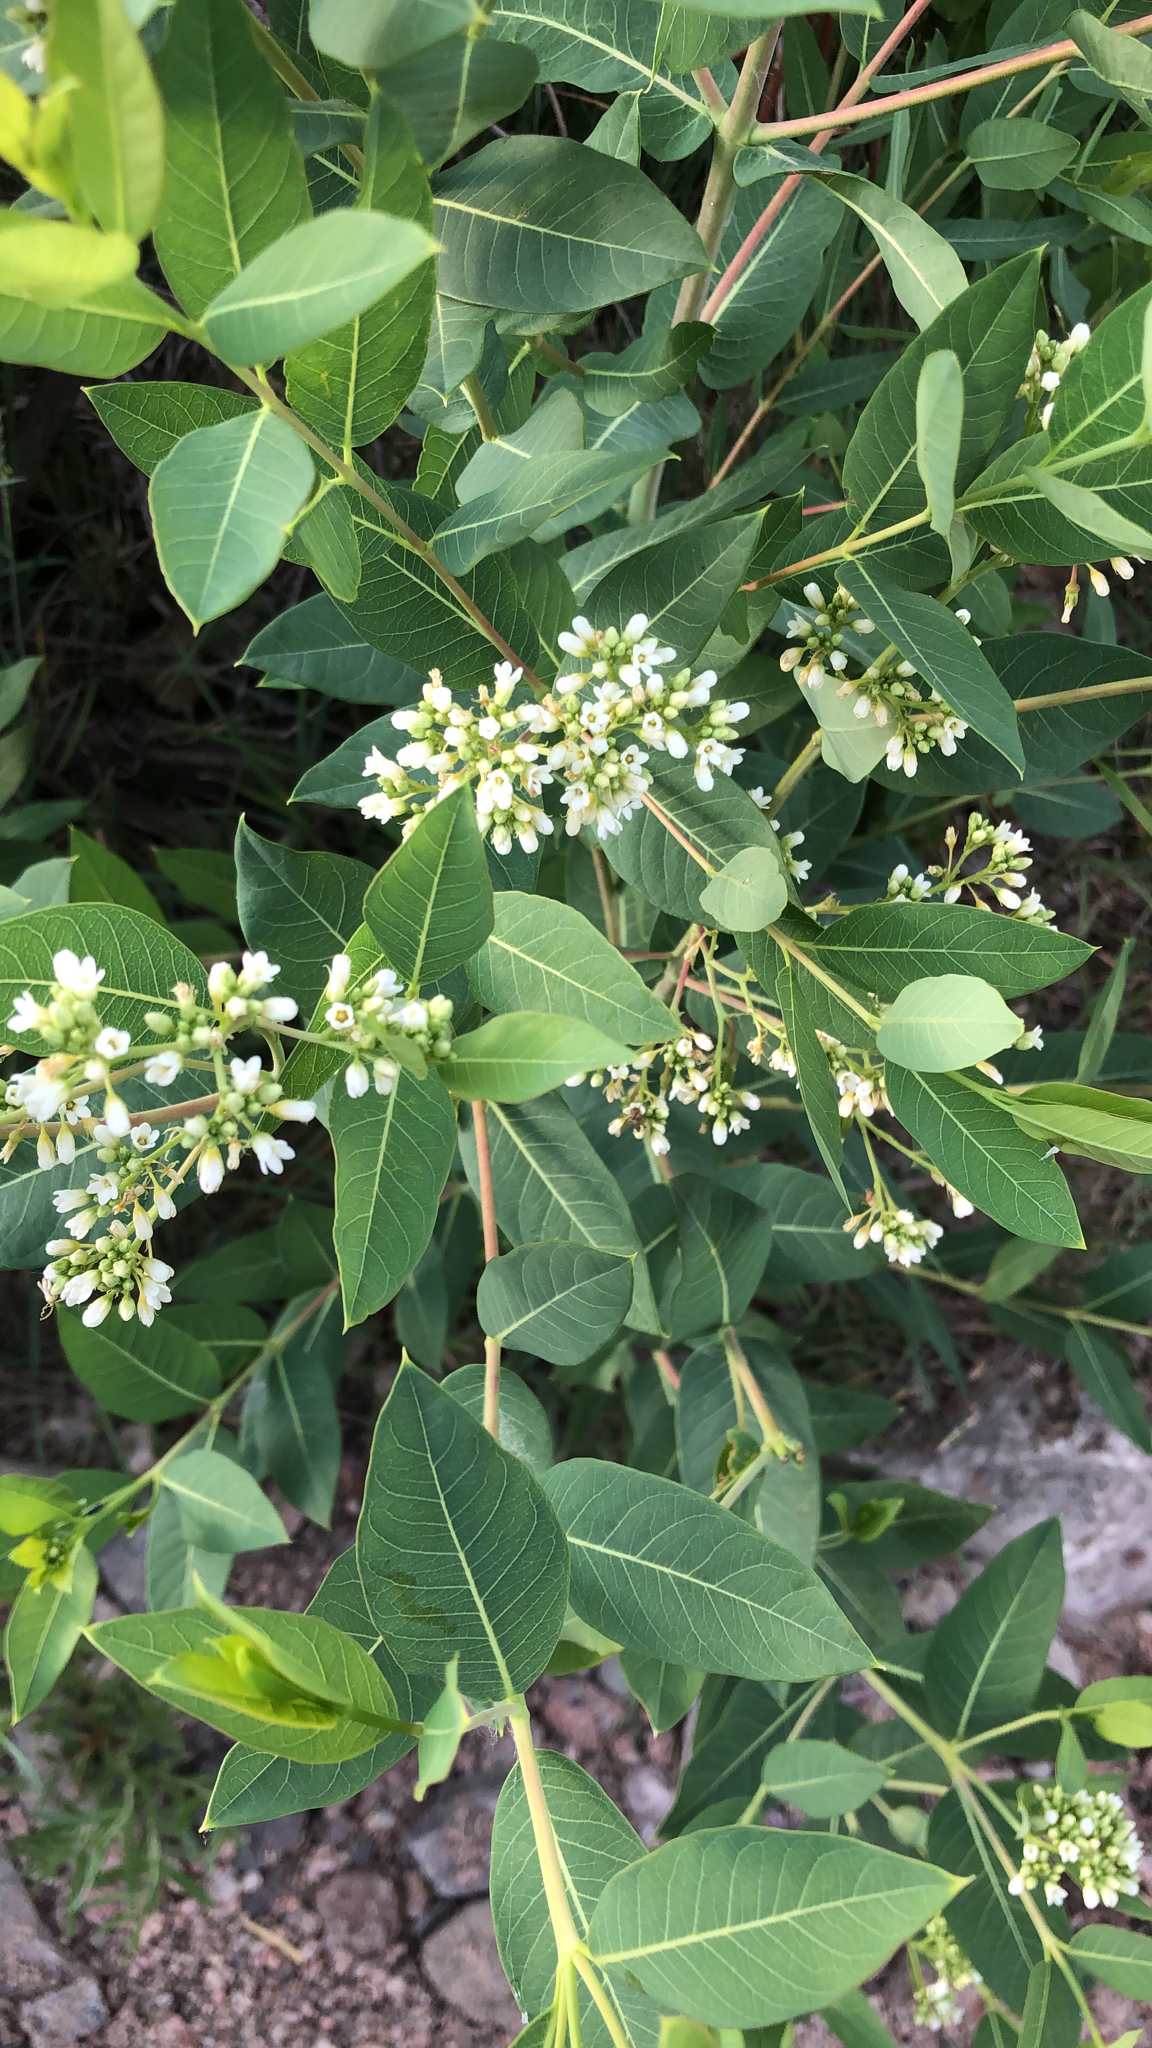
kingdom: Plantae
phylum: Tracheophyta
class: Magnoliopsida
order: Gentianales
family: Apocynaceae
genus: Apocynum
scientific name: Apocynum cannabinum
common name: Hemp dogbane
